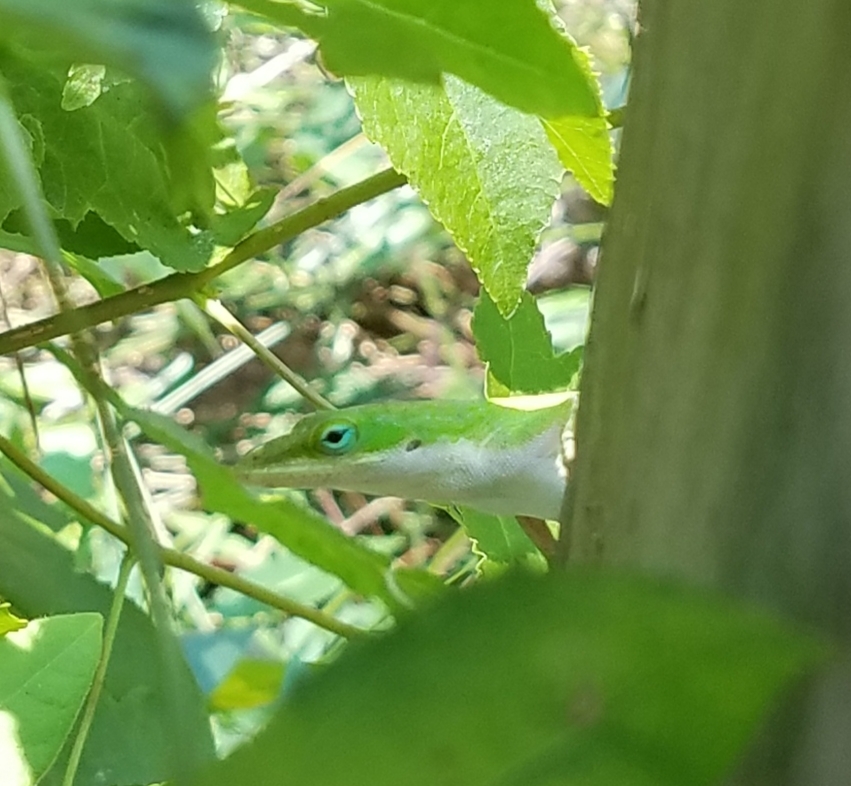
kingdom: Animalia
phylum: Chordata
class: Squamata
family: Dactyloidae
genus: Anolis
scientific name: Anolis carolinensis
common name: Green anole
